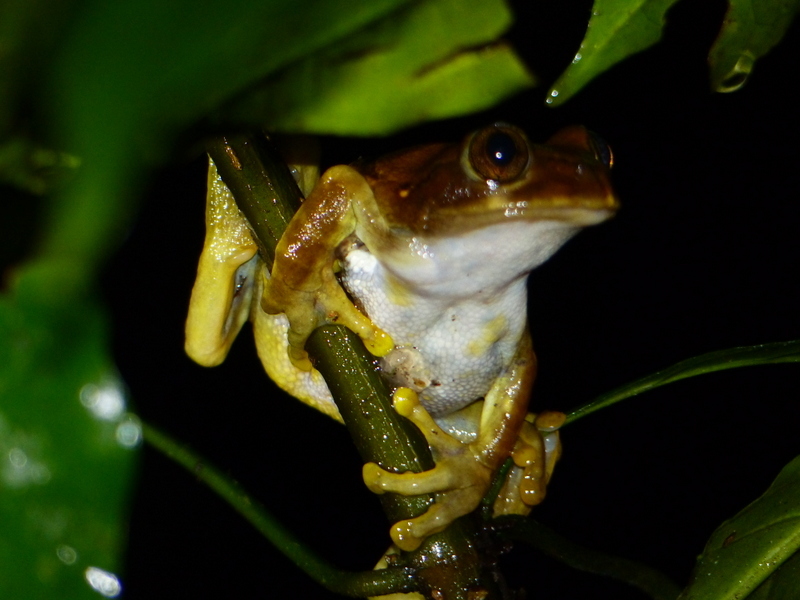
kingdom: Animalia
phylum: Chordata
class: Amphibia
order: Anura
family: Arthroleptidae
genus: Leptopelis
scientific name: Leptopelis uluguruensis
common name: Uluguru forest treefrog
